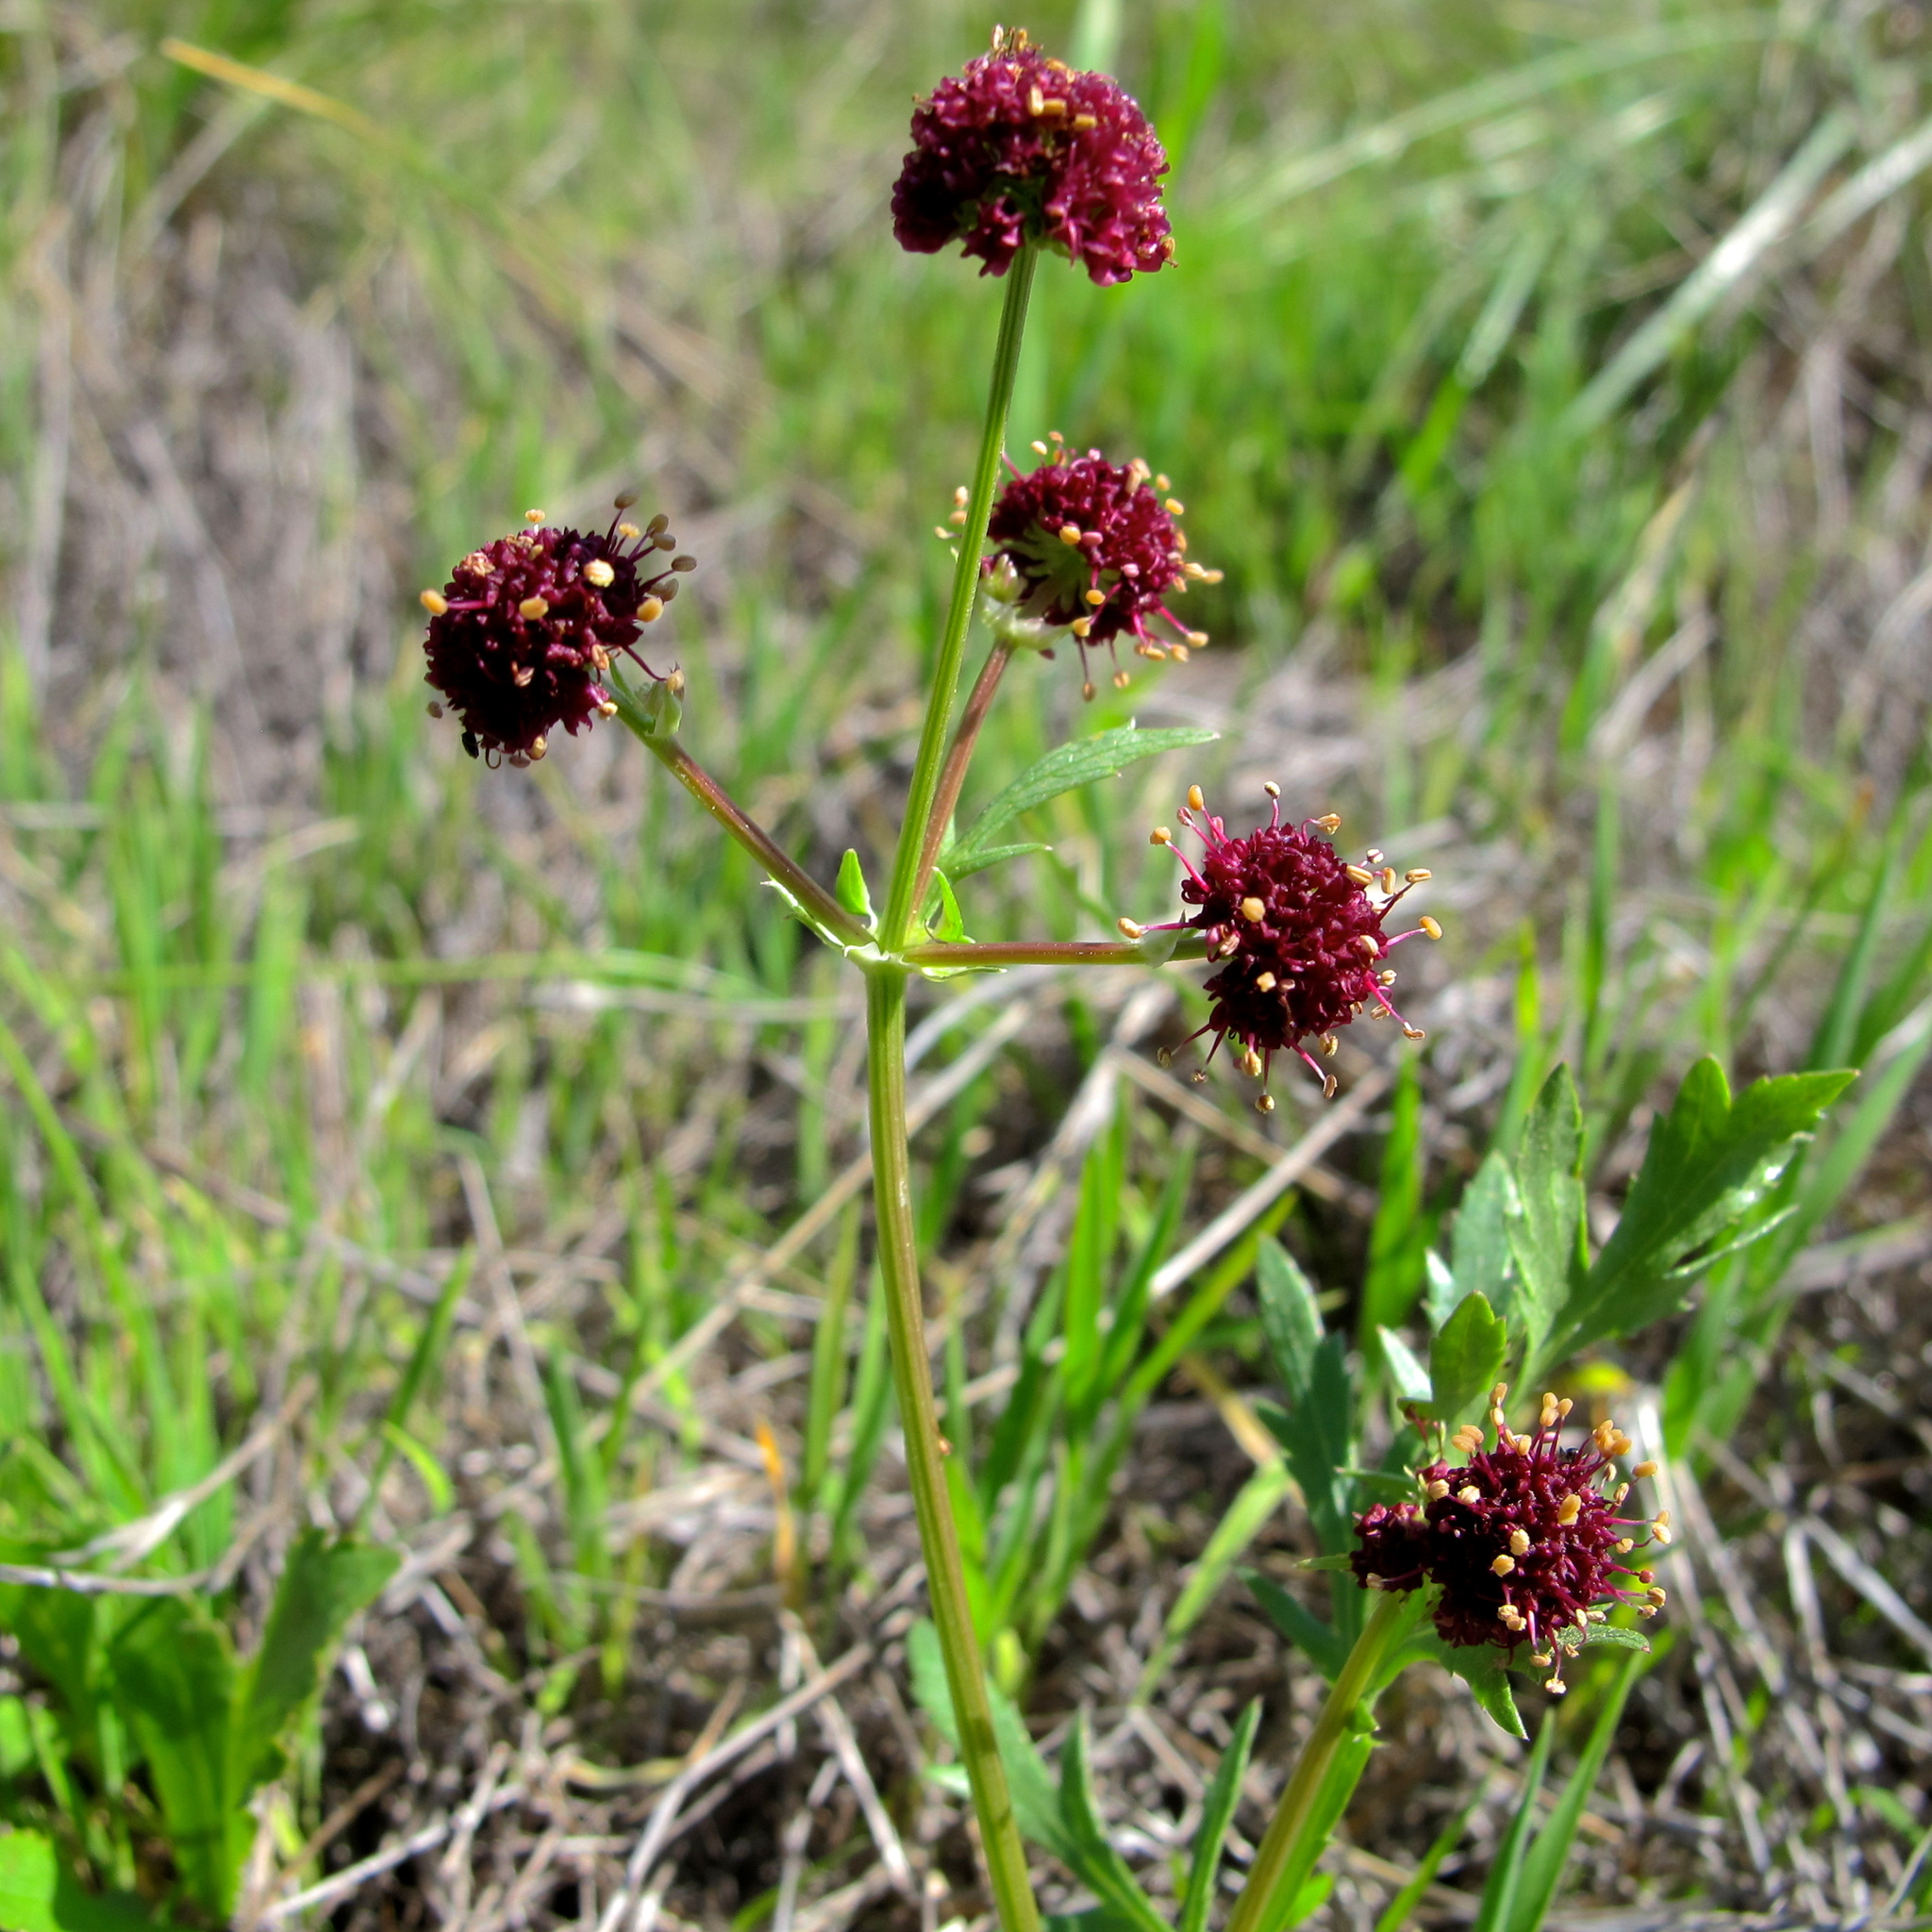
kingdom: Plantae
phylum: Tracheophyta
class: Magnoliopsida
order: Apiales
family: Apiaceae
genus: Sanicula
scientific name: Sanicula bipinnatifida
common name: Shoe-buttons
